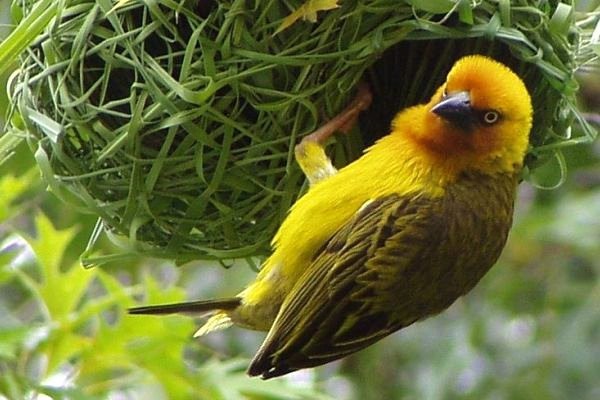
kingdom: Animalia
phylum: Chordata
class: Aves
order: Passeriformes
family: Ploceidae
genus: Ploceus
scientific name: Ploceus capensis
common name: Cape weaver
